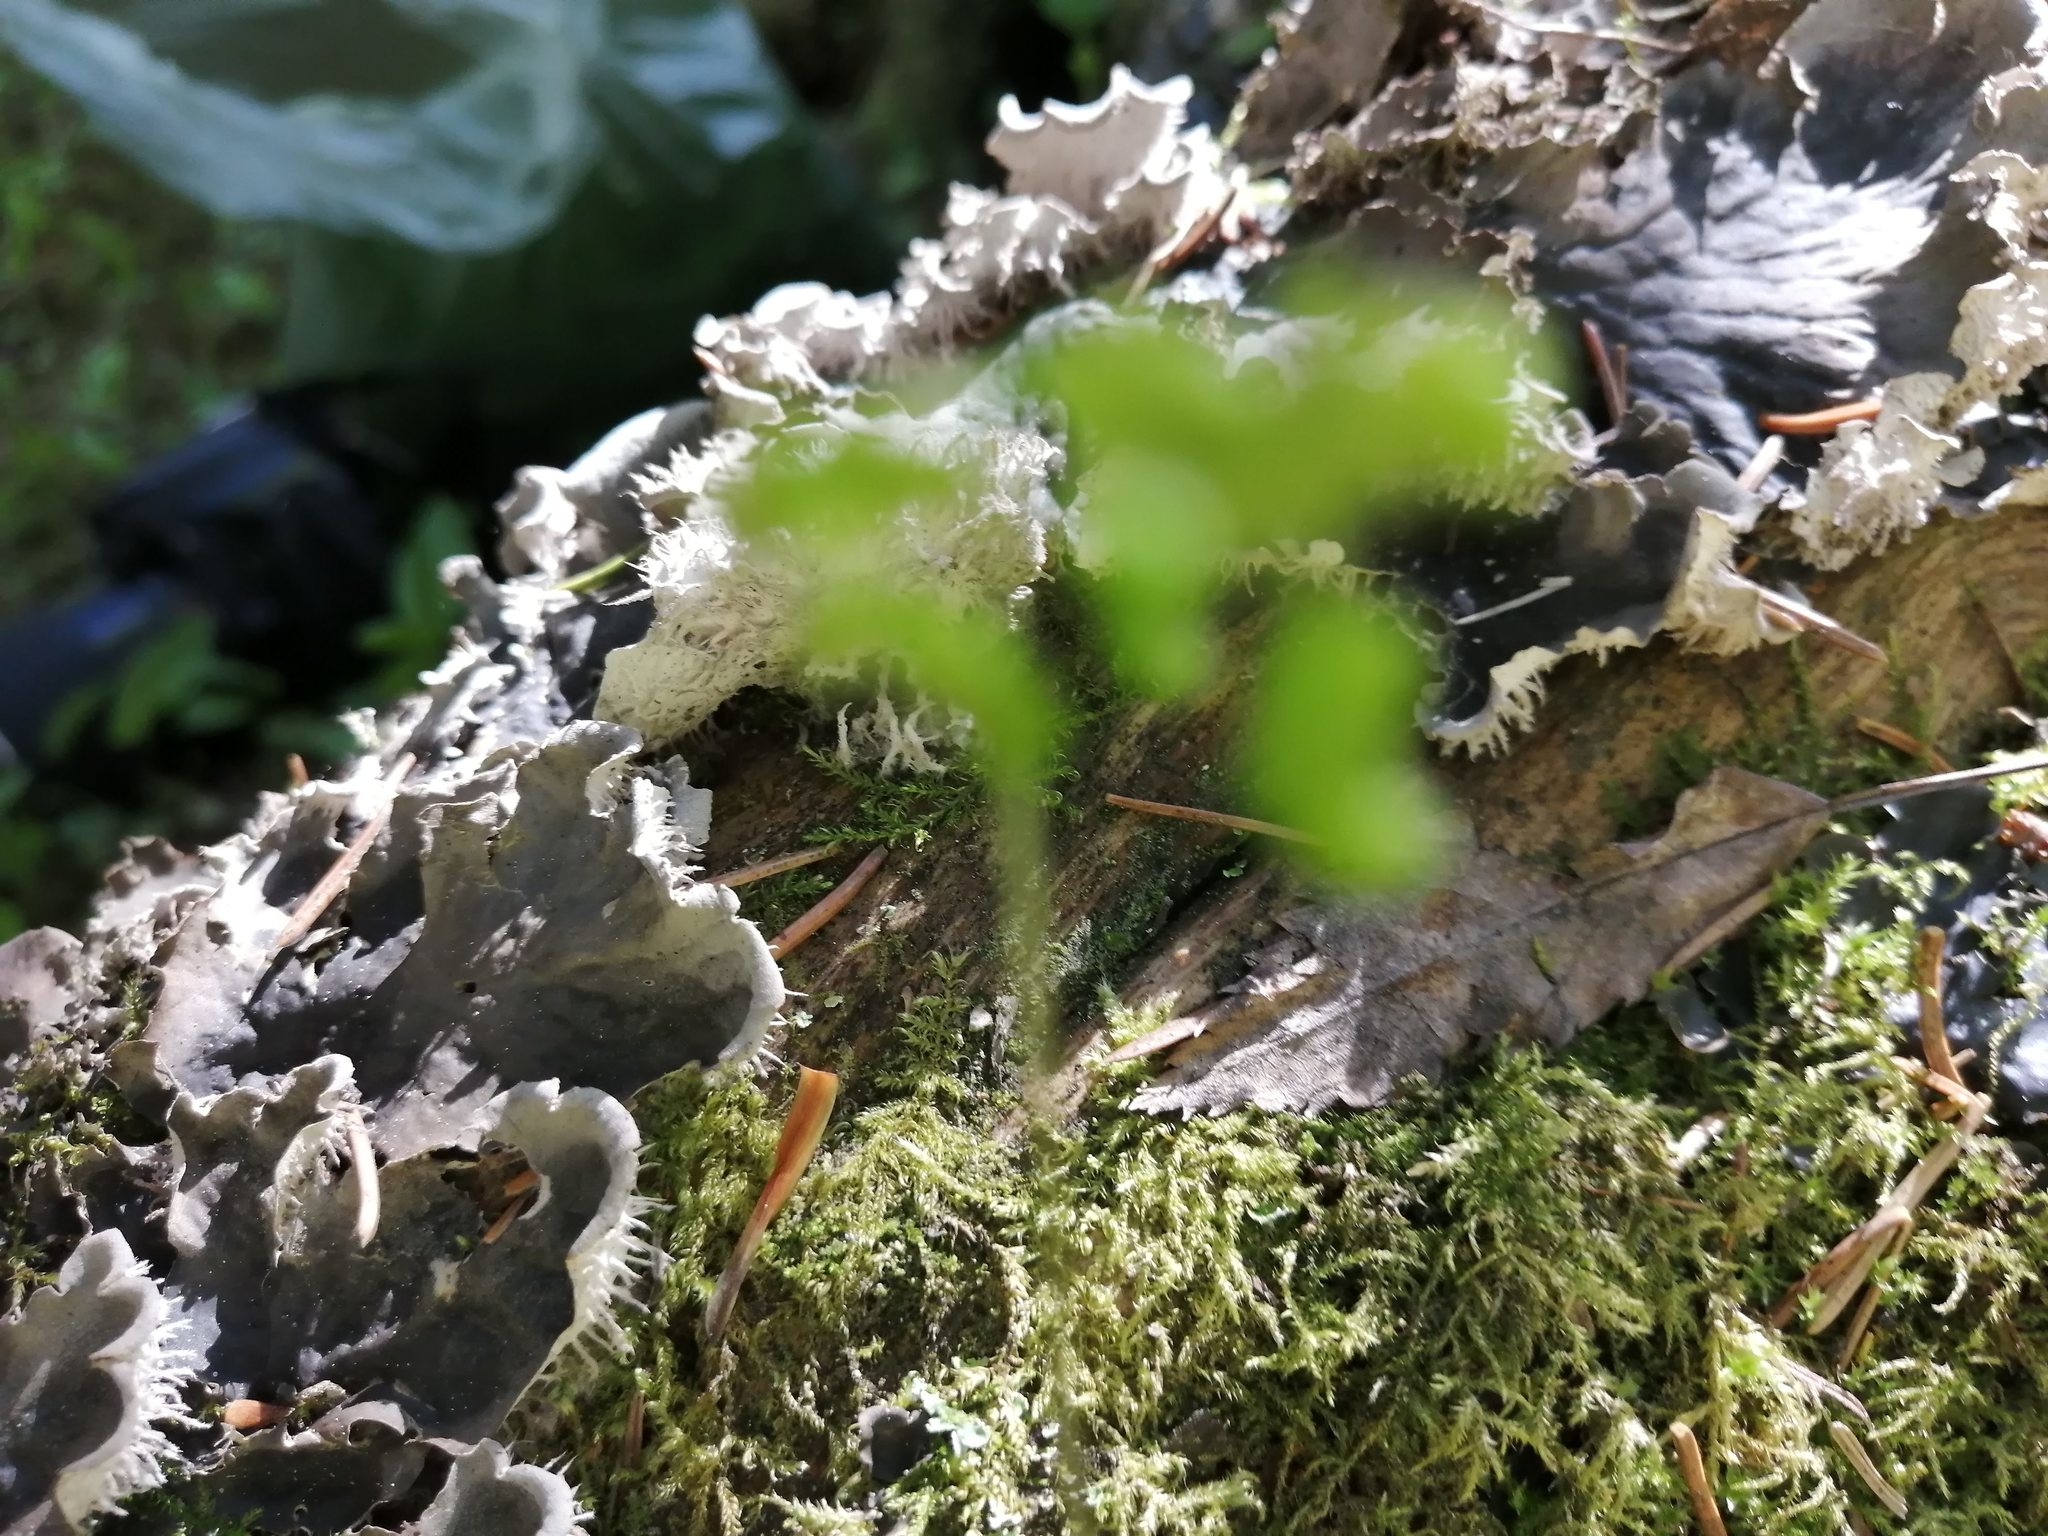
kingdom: Fungi
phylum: Ascomycota
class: Lecanoromycetes
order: Peltigerales
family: Peltigeraceae
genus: Peltigera
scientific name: Peltigera canina
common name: Dog pelt lichen
